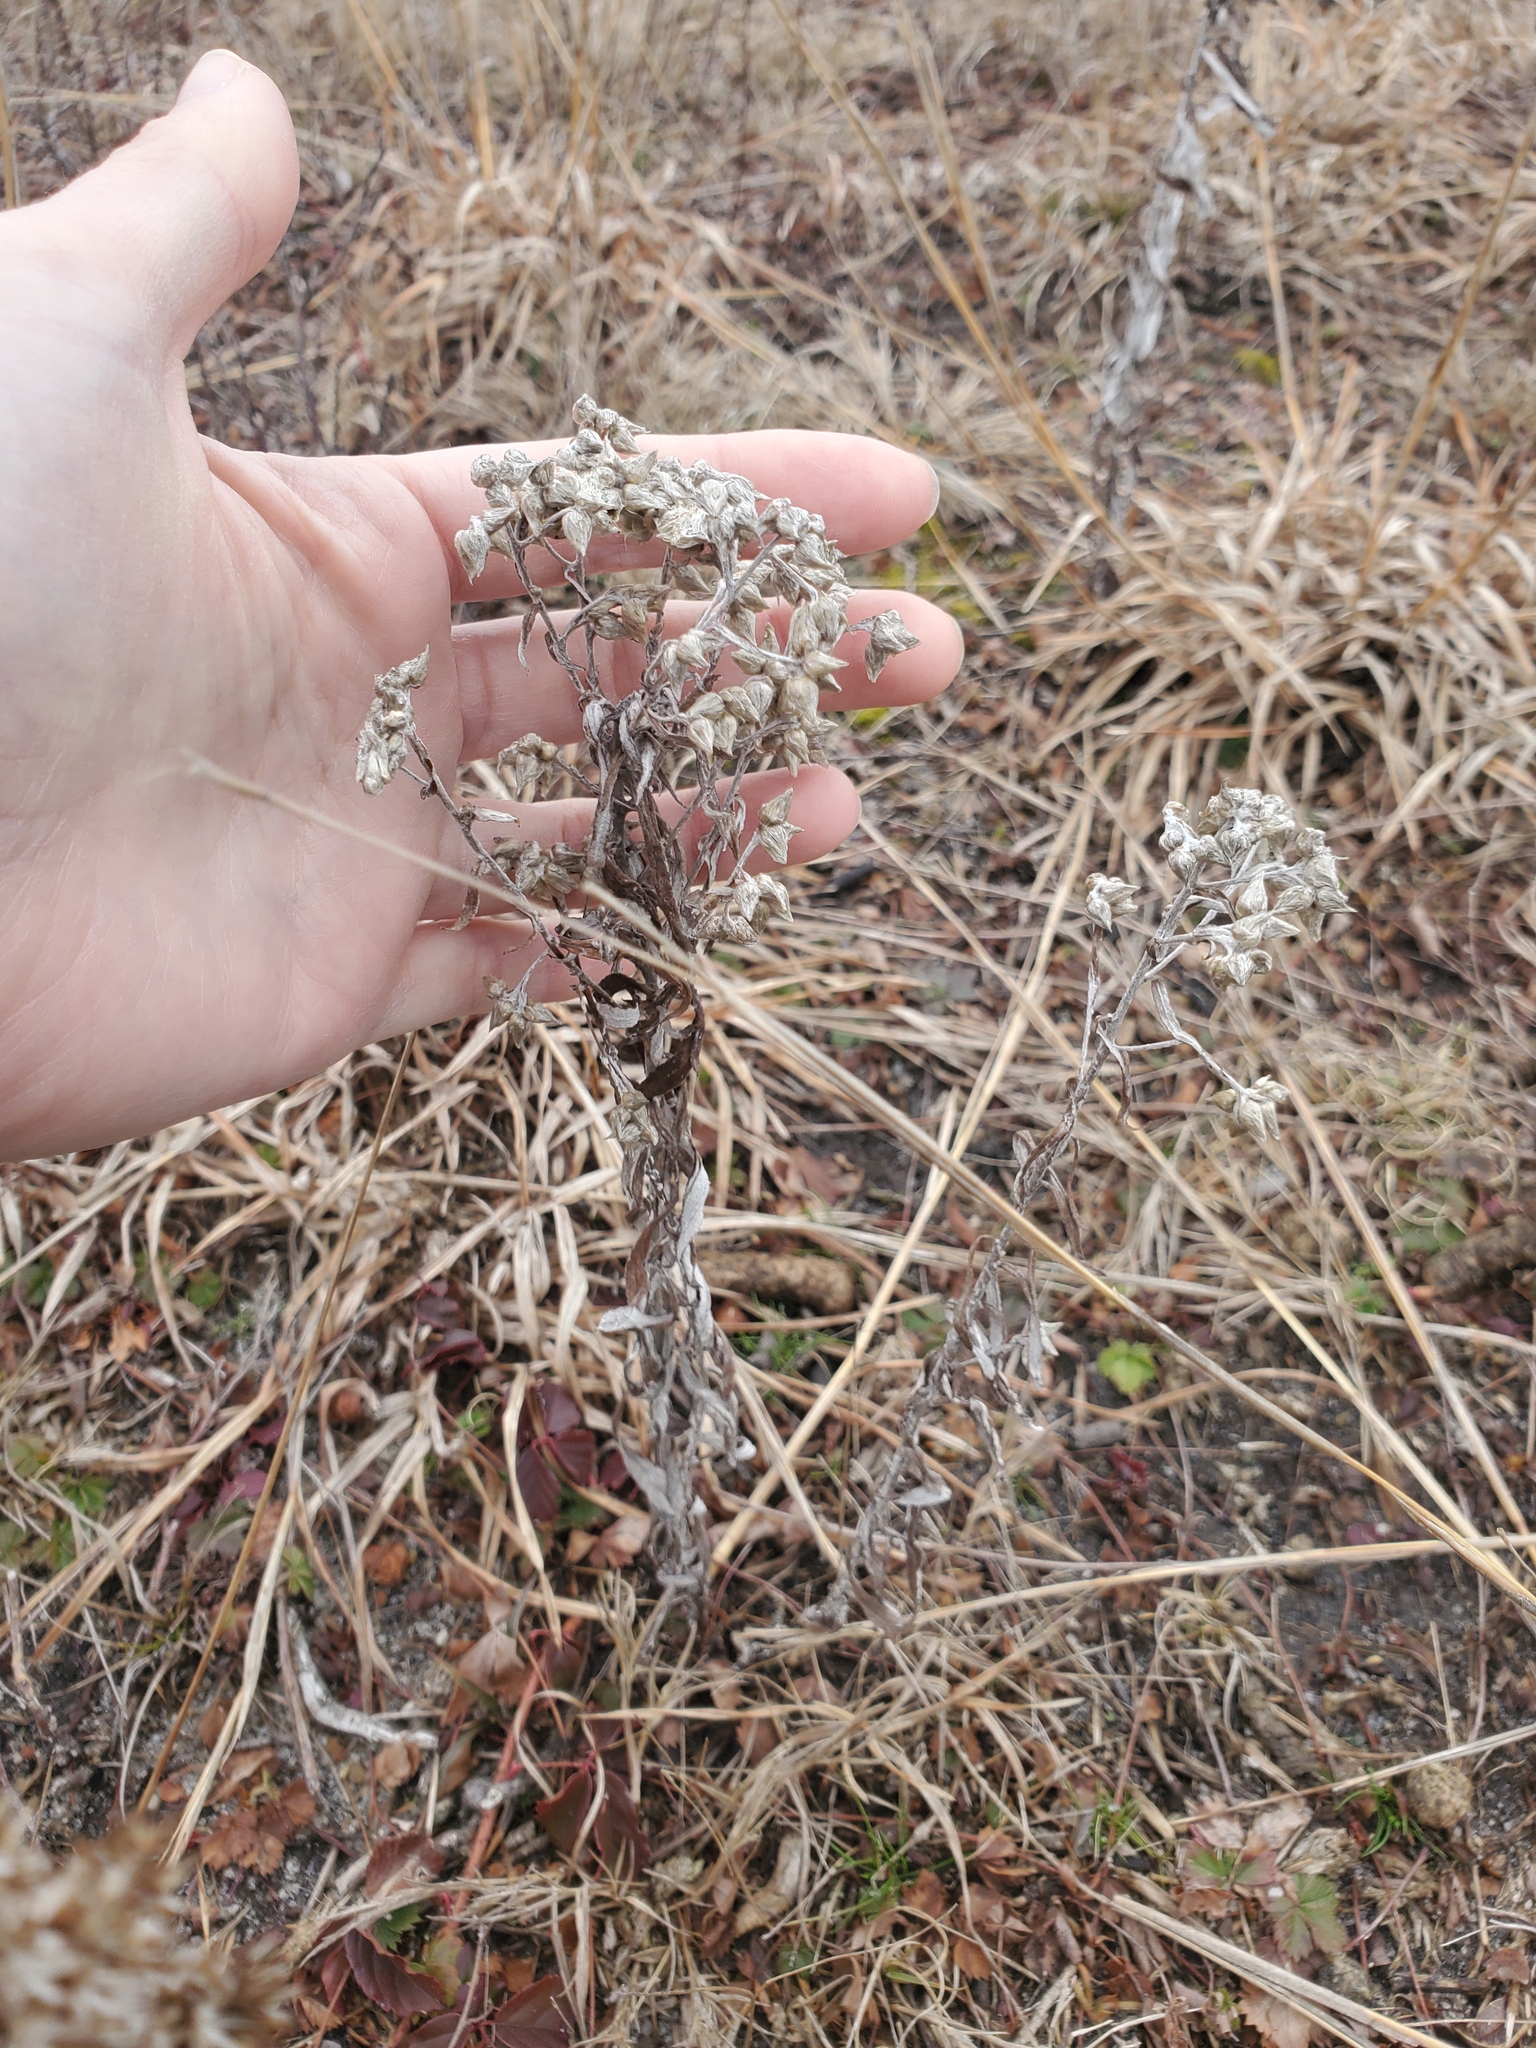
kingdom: Plantae
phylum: Tracheophyta
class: Magnoliopsida
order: Asterales
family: Asteraceae
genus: Pseudognaphalium
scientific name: Pseudognaphalium obtusifolium
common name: Eastern rabbit-tobacco
